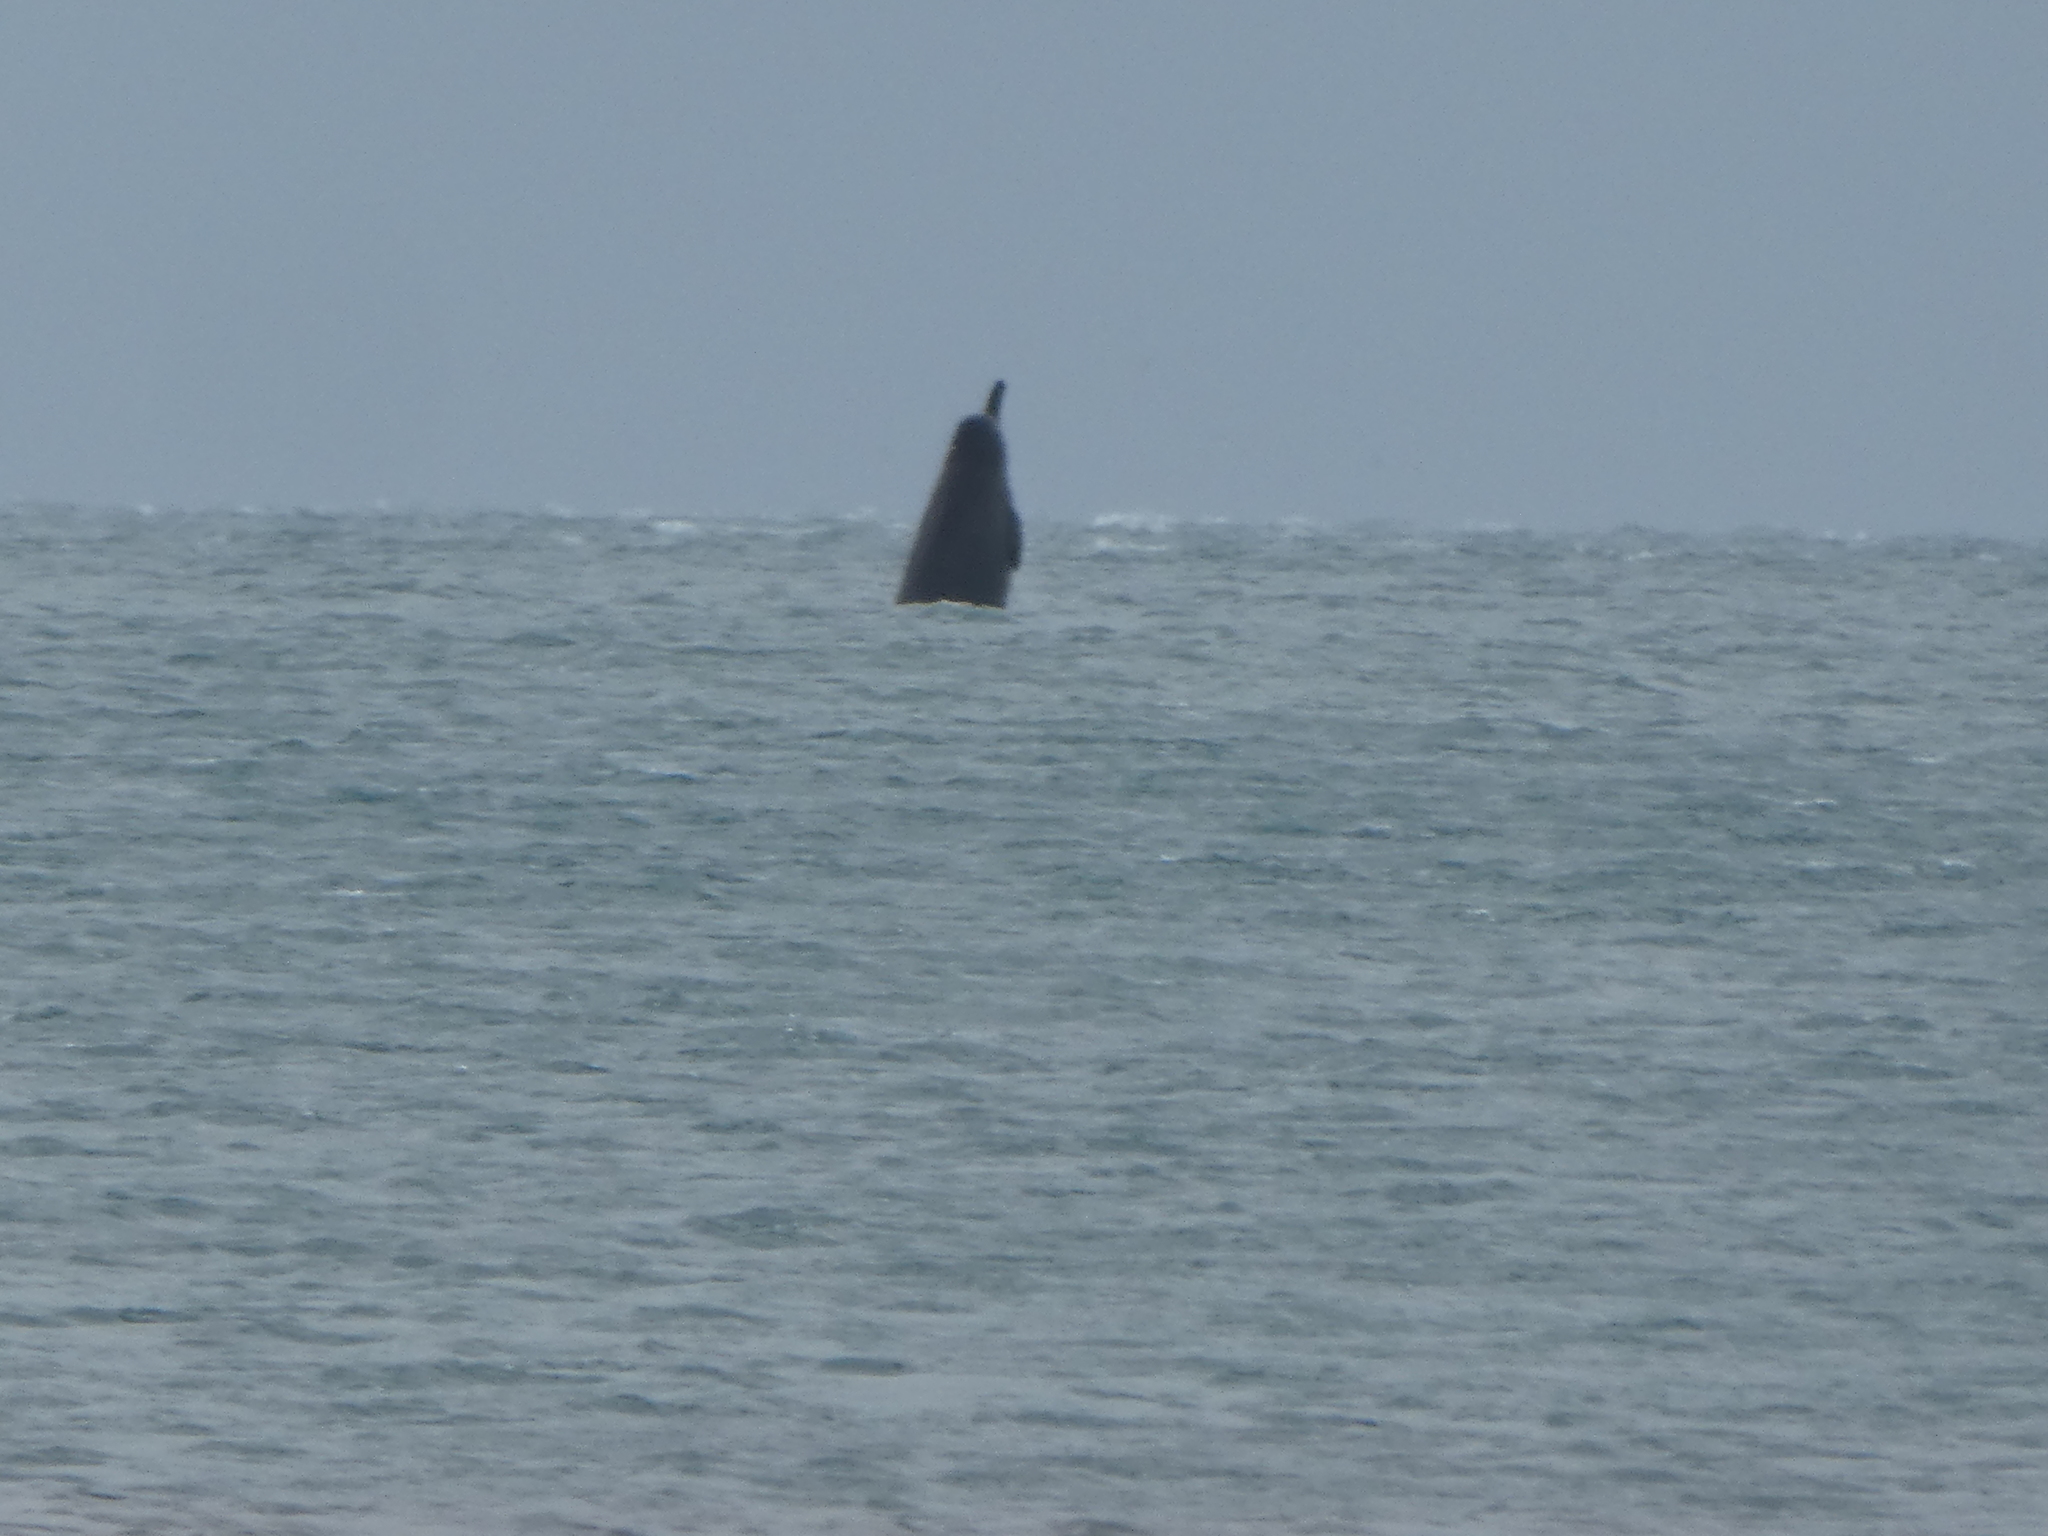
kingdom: Animalia
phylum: Chordata
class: Mammalia
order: Cetacea
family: Hyperoodontidae
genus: Berardius
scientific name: Berardius arnuxii
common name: Arnoux's beaked whale
